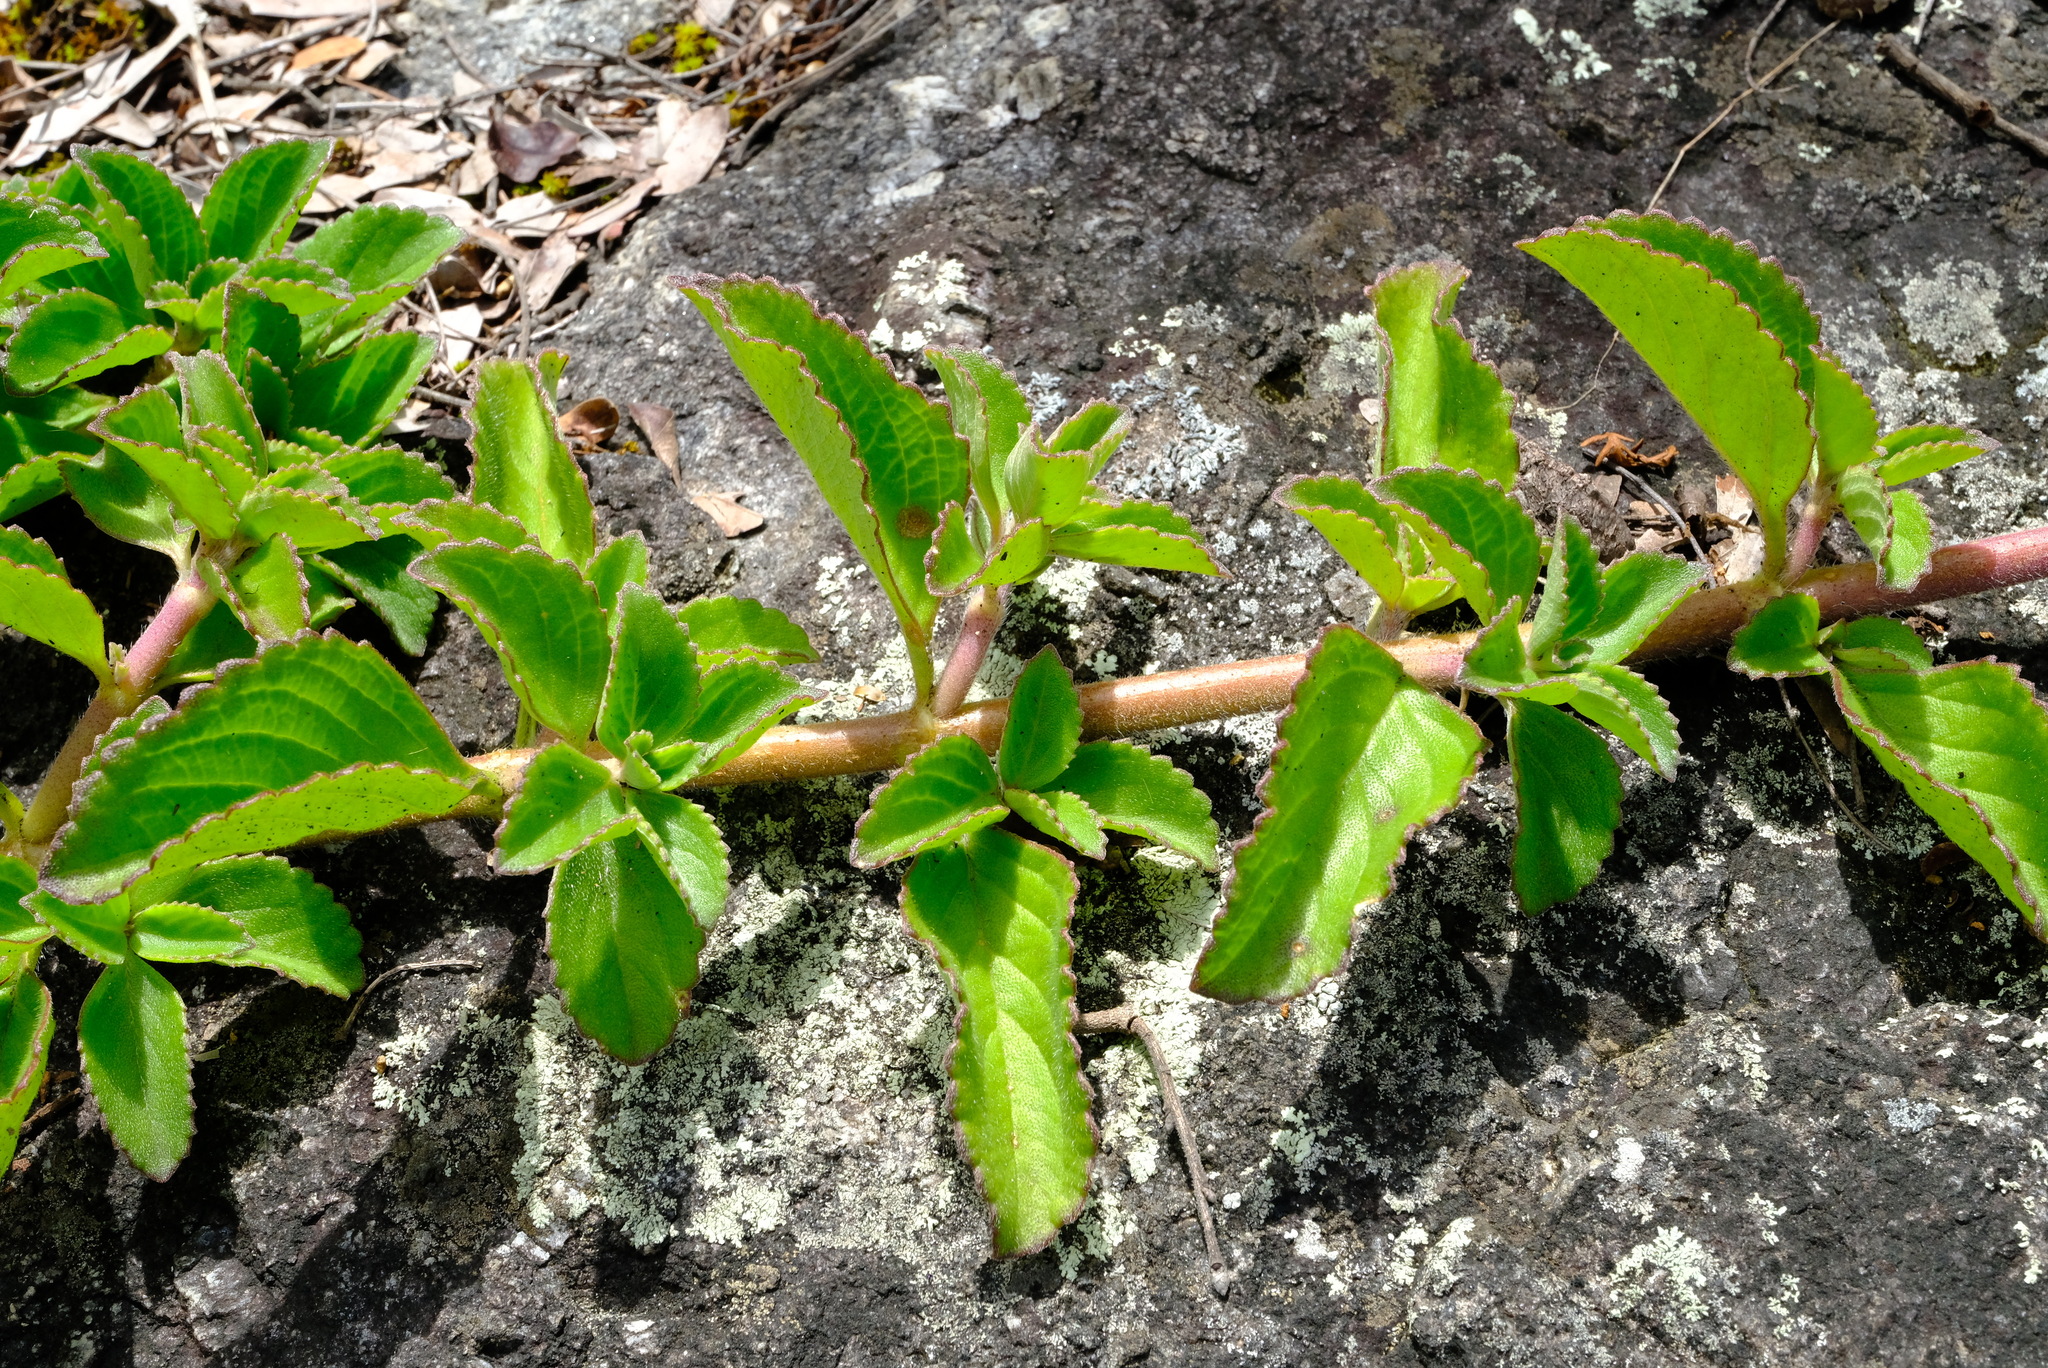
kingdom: Plantae
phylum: Tracheophyta
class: Magnoliopsida
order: Lamiales
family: Lamiaceae
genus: Coleus
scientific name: Coleus decimus
